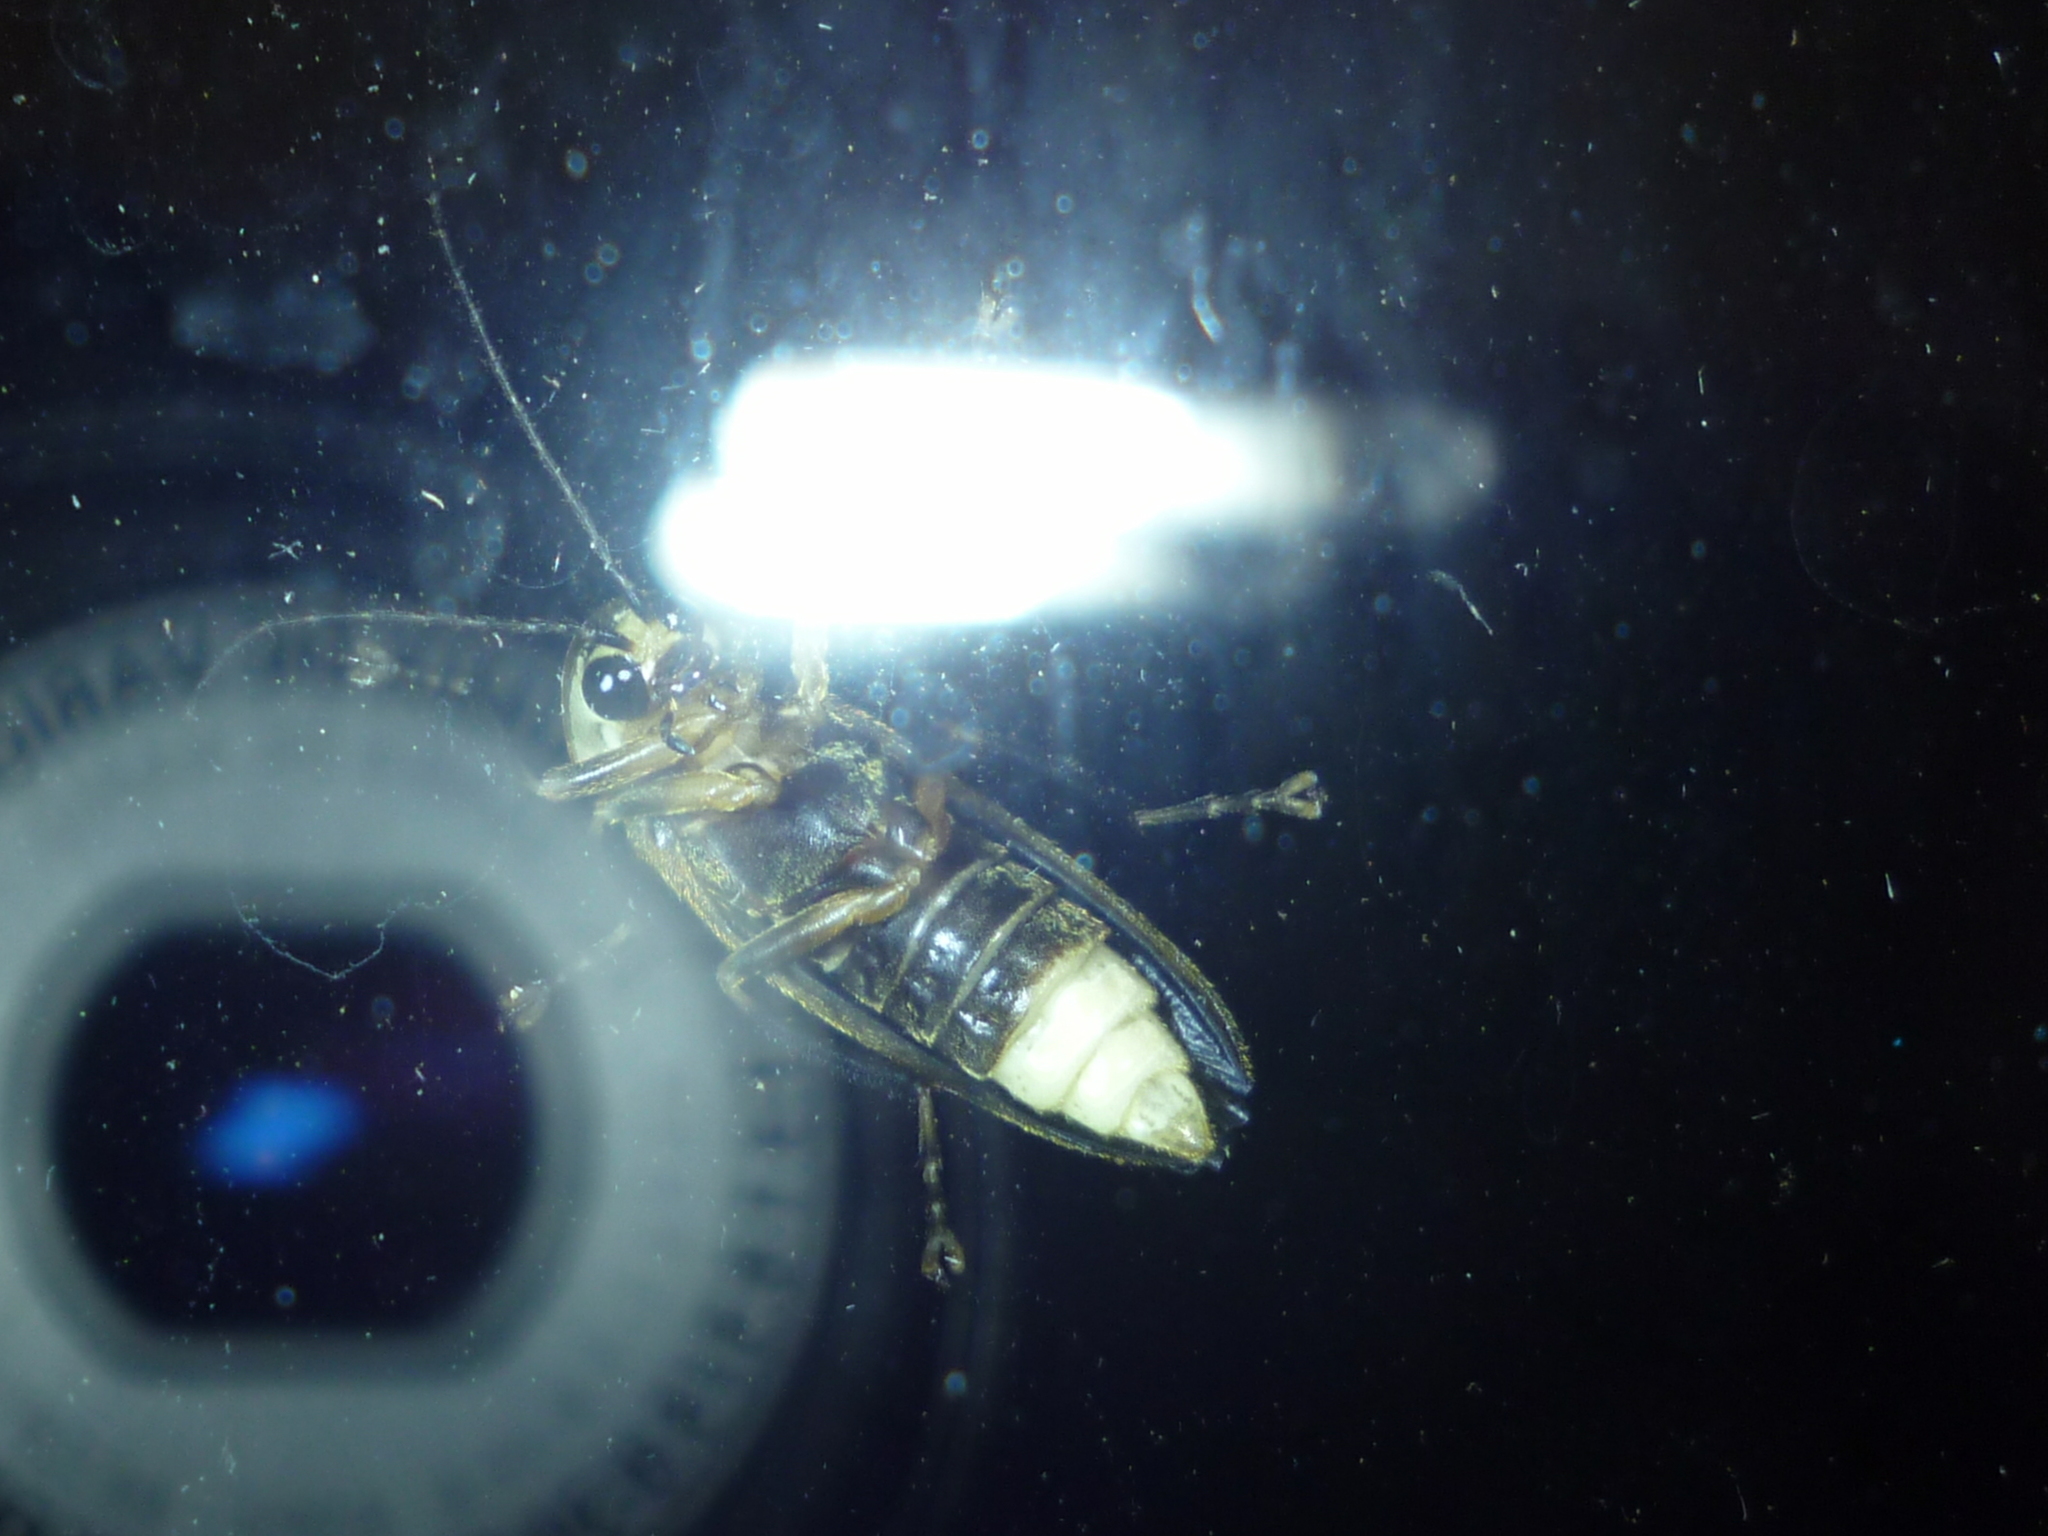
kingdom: Animalia
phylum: Arthropoda
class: Insecta
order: Coleoptera
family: Lampyridae
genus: Photuris
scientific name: Photuris
